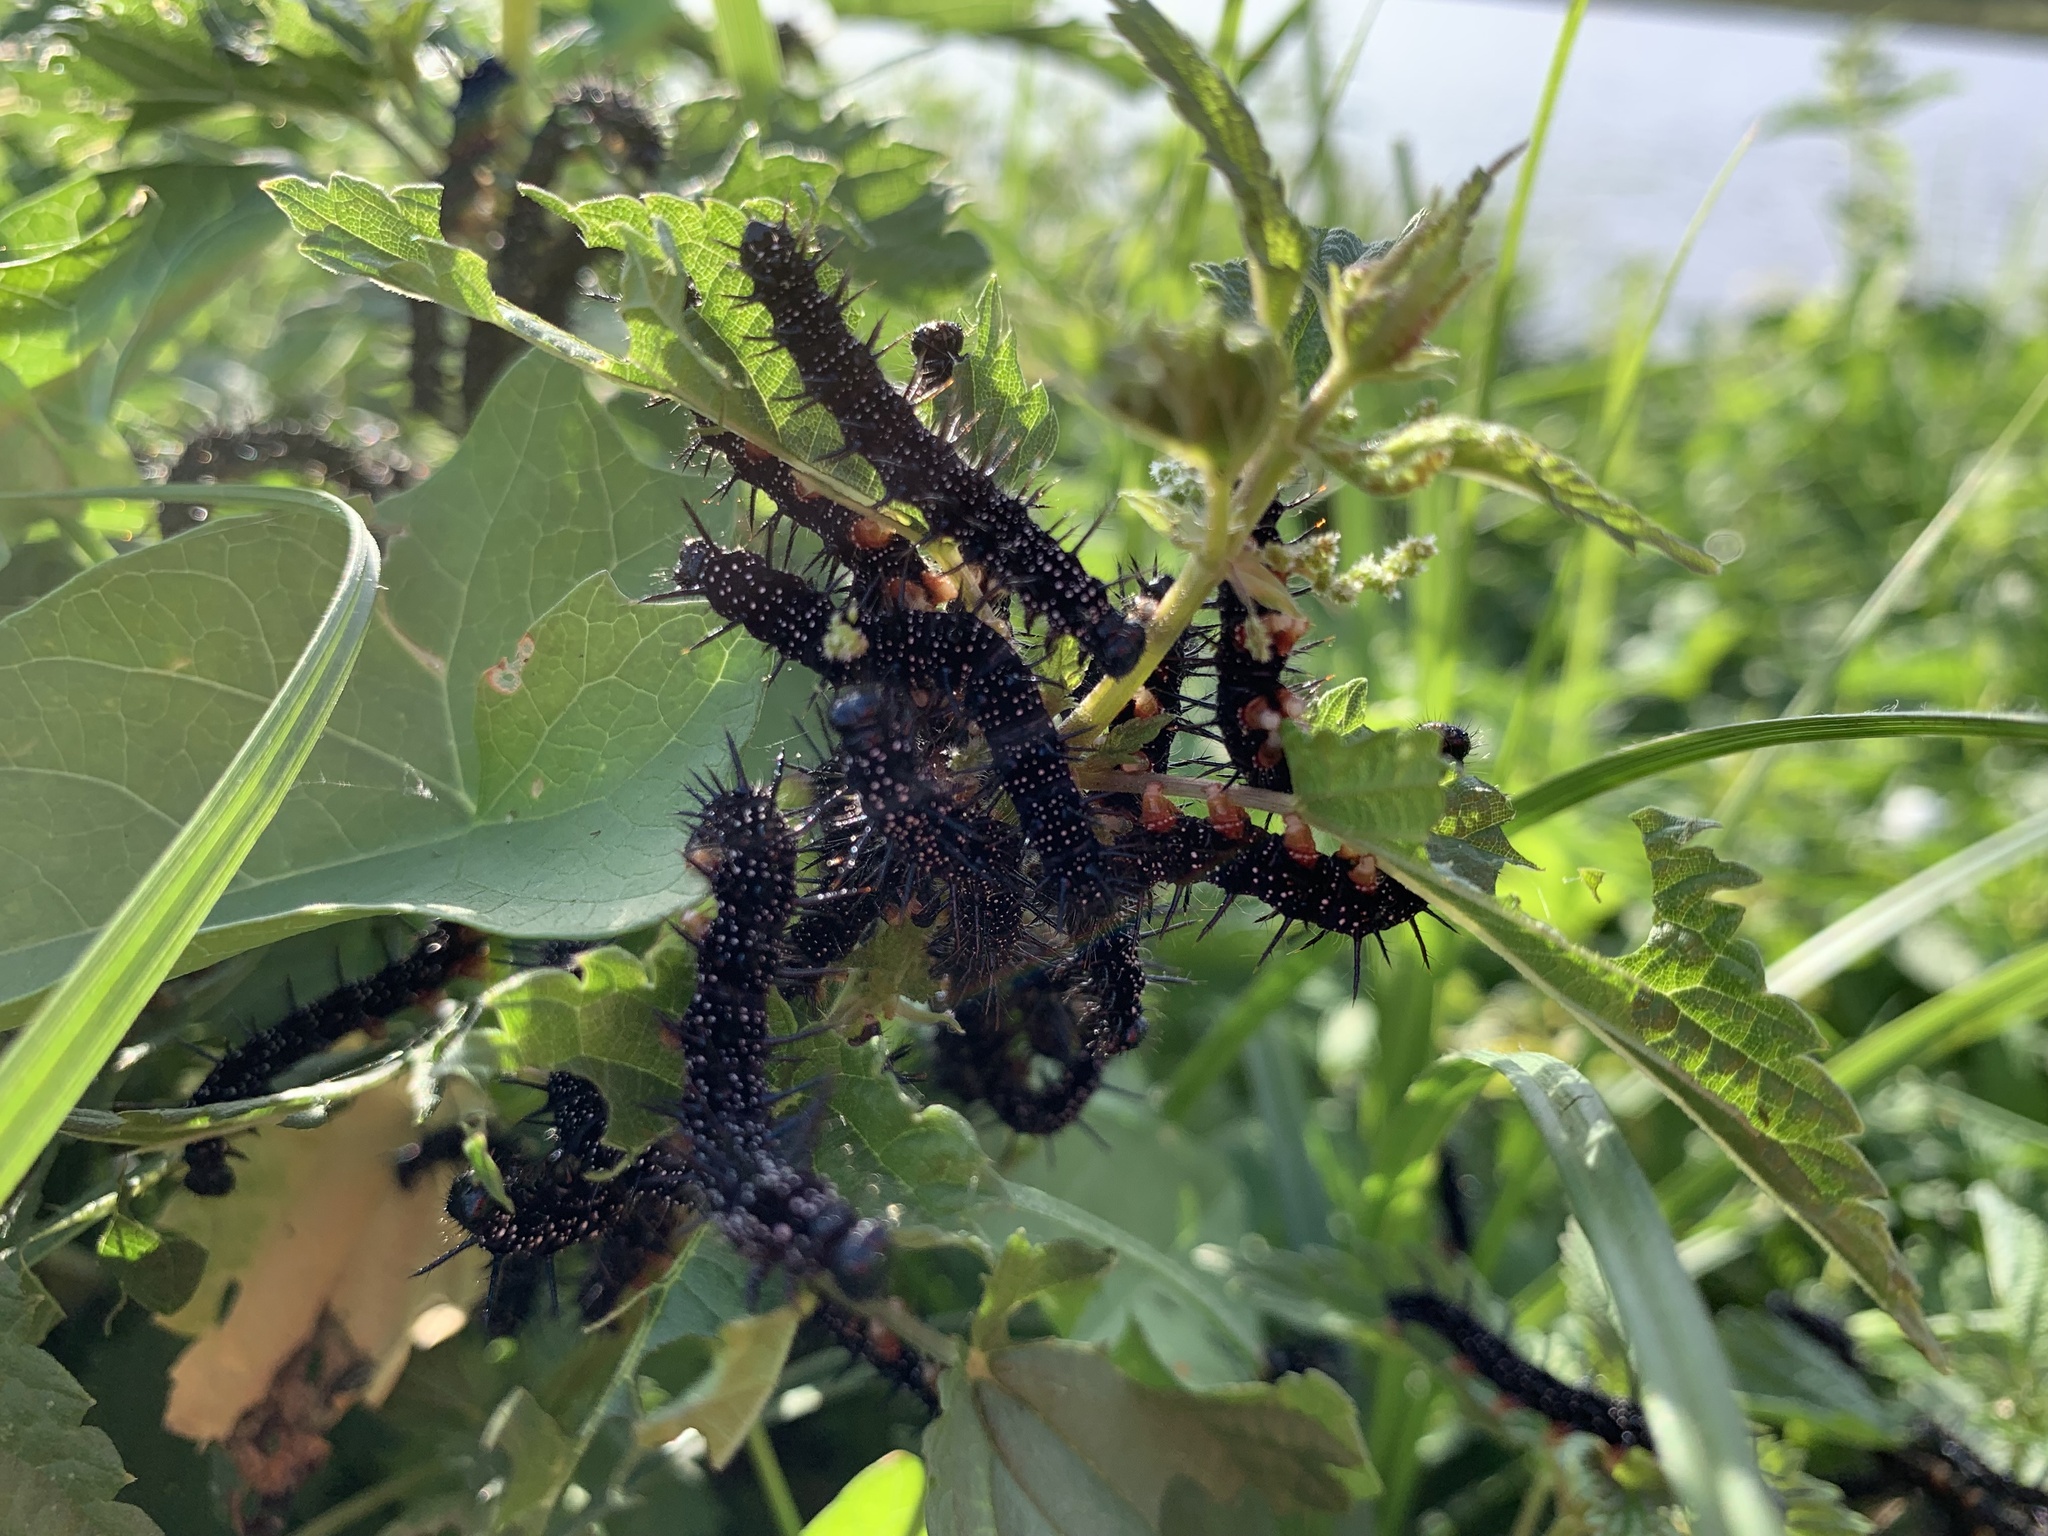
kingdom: Animalia
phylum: Arthropoda
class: Insecta
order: Lepidoptera
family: Nymphalidae
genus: Aglais
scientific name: Aglais io
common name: Peacock
